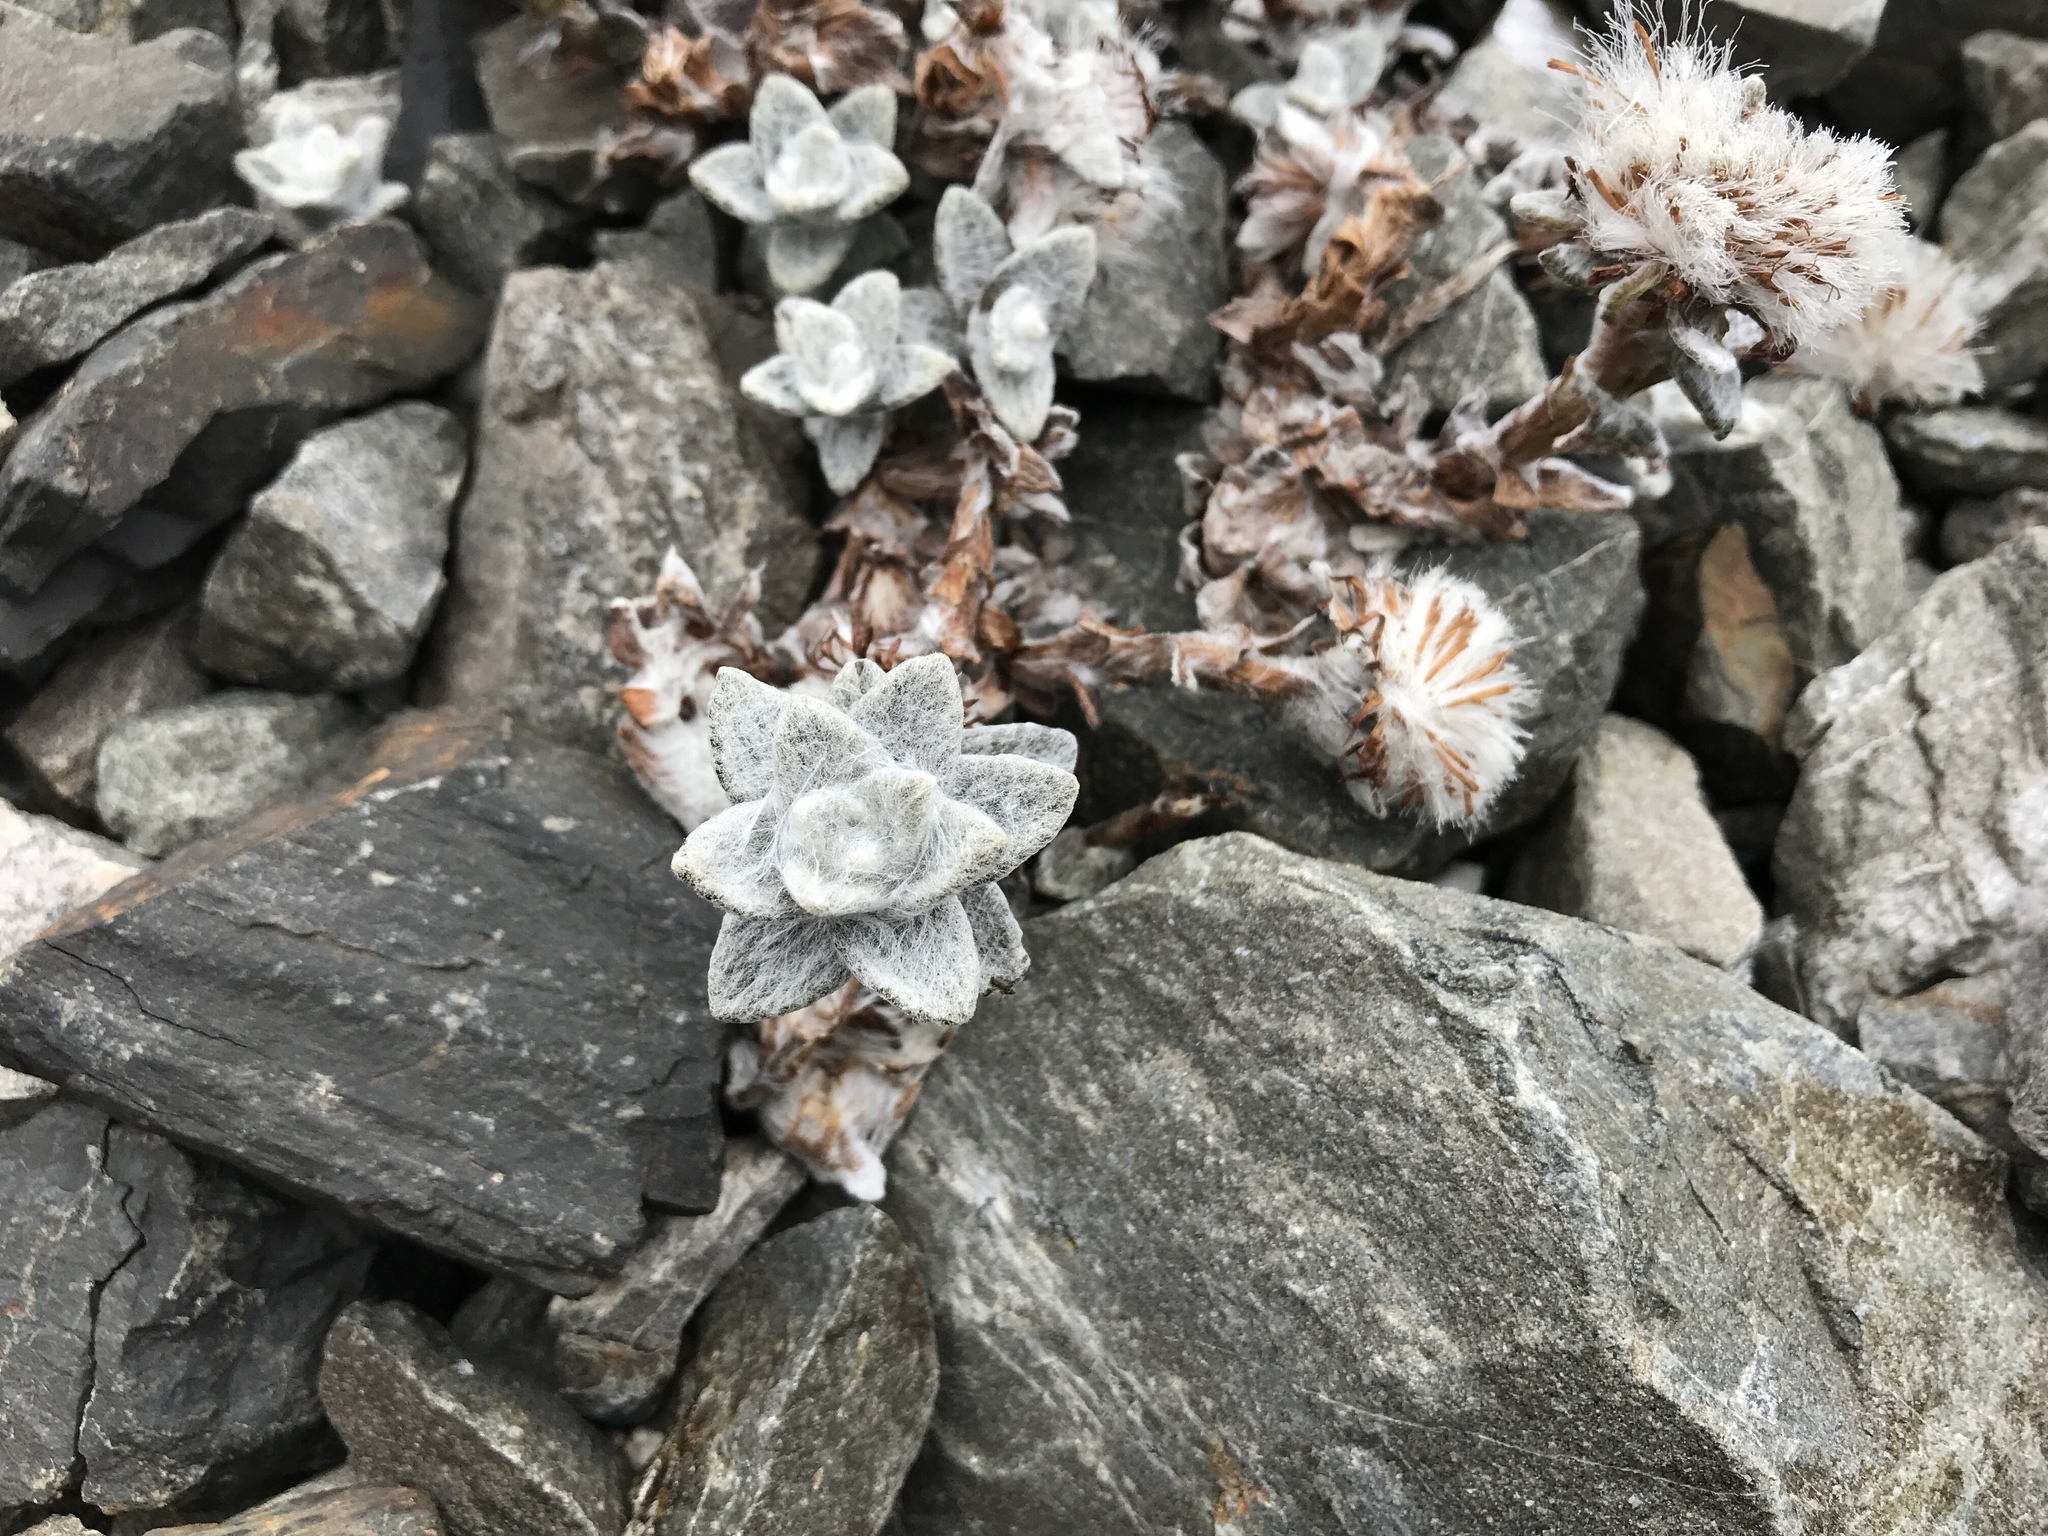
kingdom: Plantae
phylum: Tracheophyta
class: Magnoliopsida
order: Asterales
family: Asteraceae
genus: Haastia
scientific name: Haastia sinclairii
